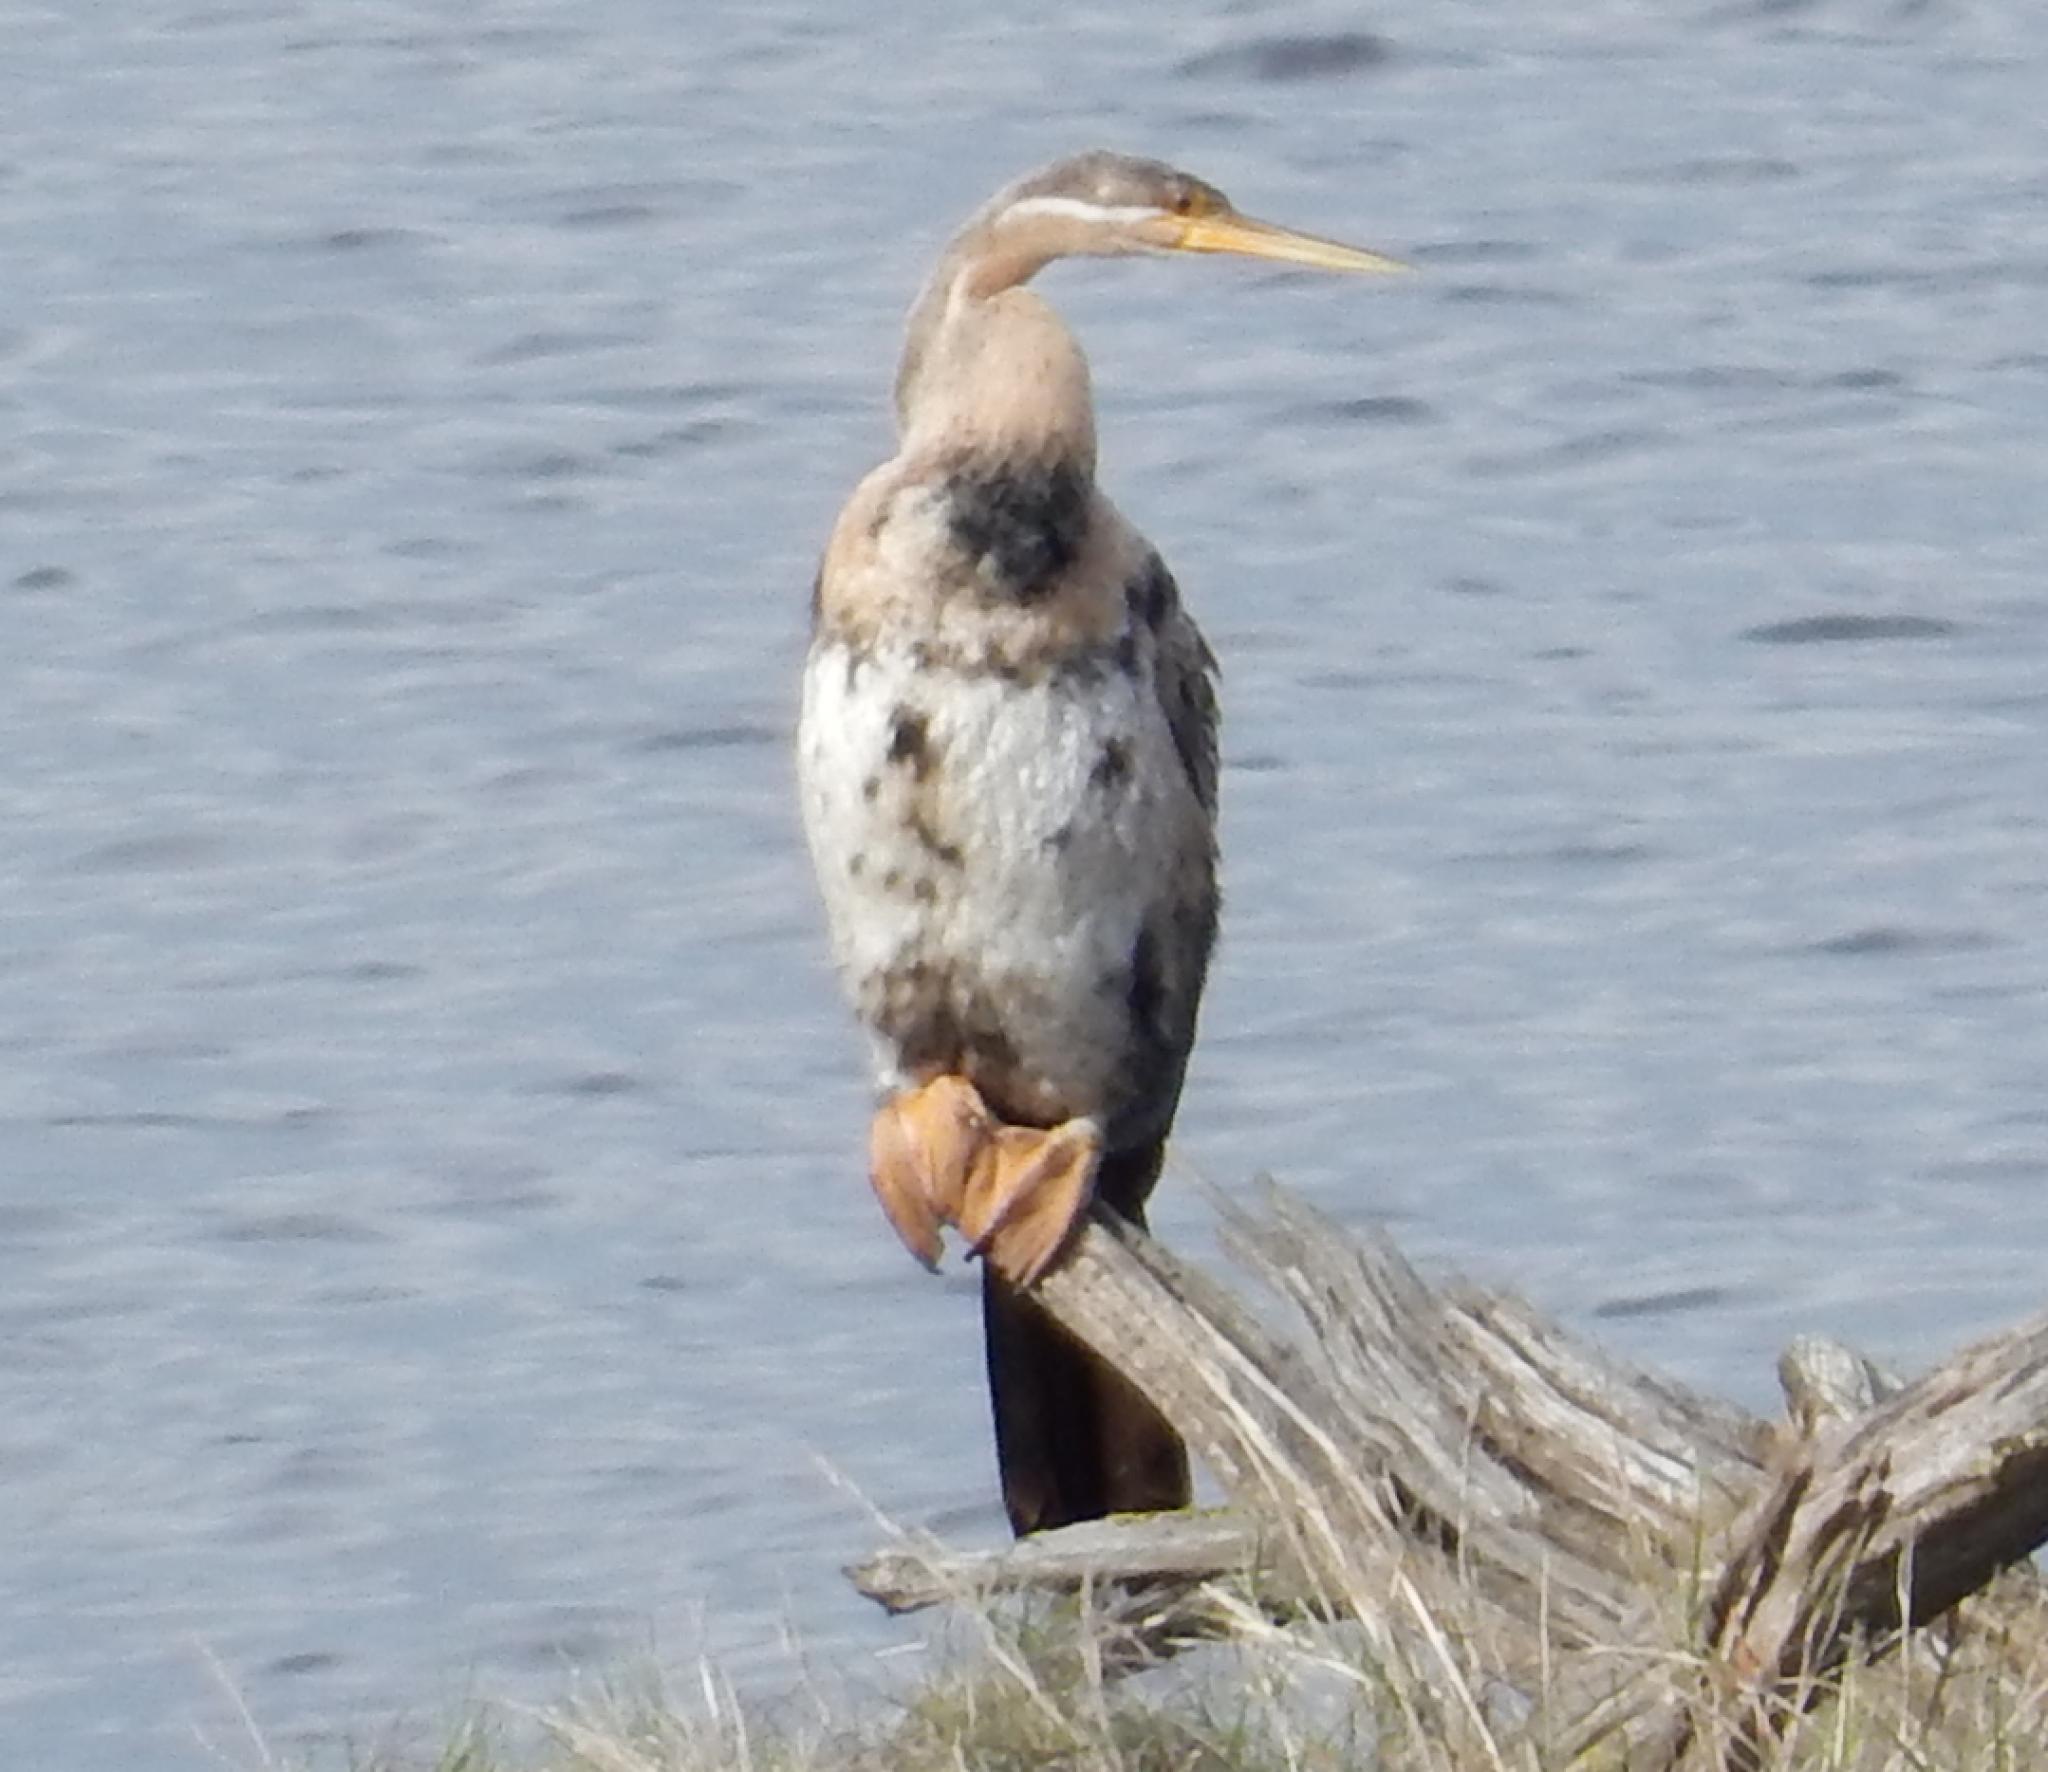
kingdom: Animalia
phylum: Chordata
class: Aves
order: Suliformes
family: Anhingidae
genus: Anhinga
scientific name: Anhinga rufa
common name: African darter
